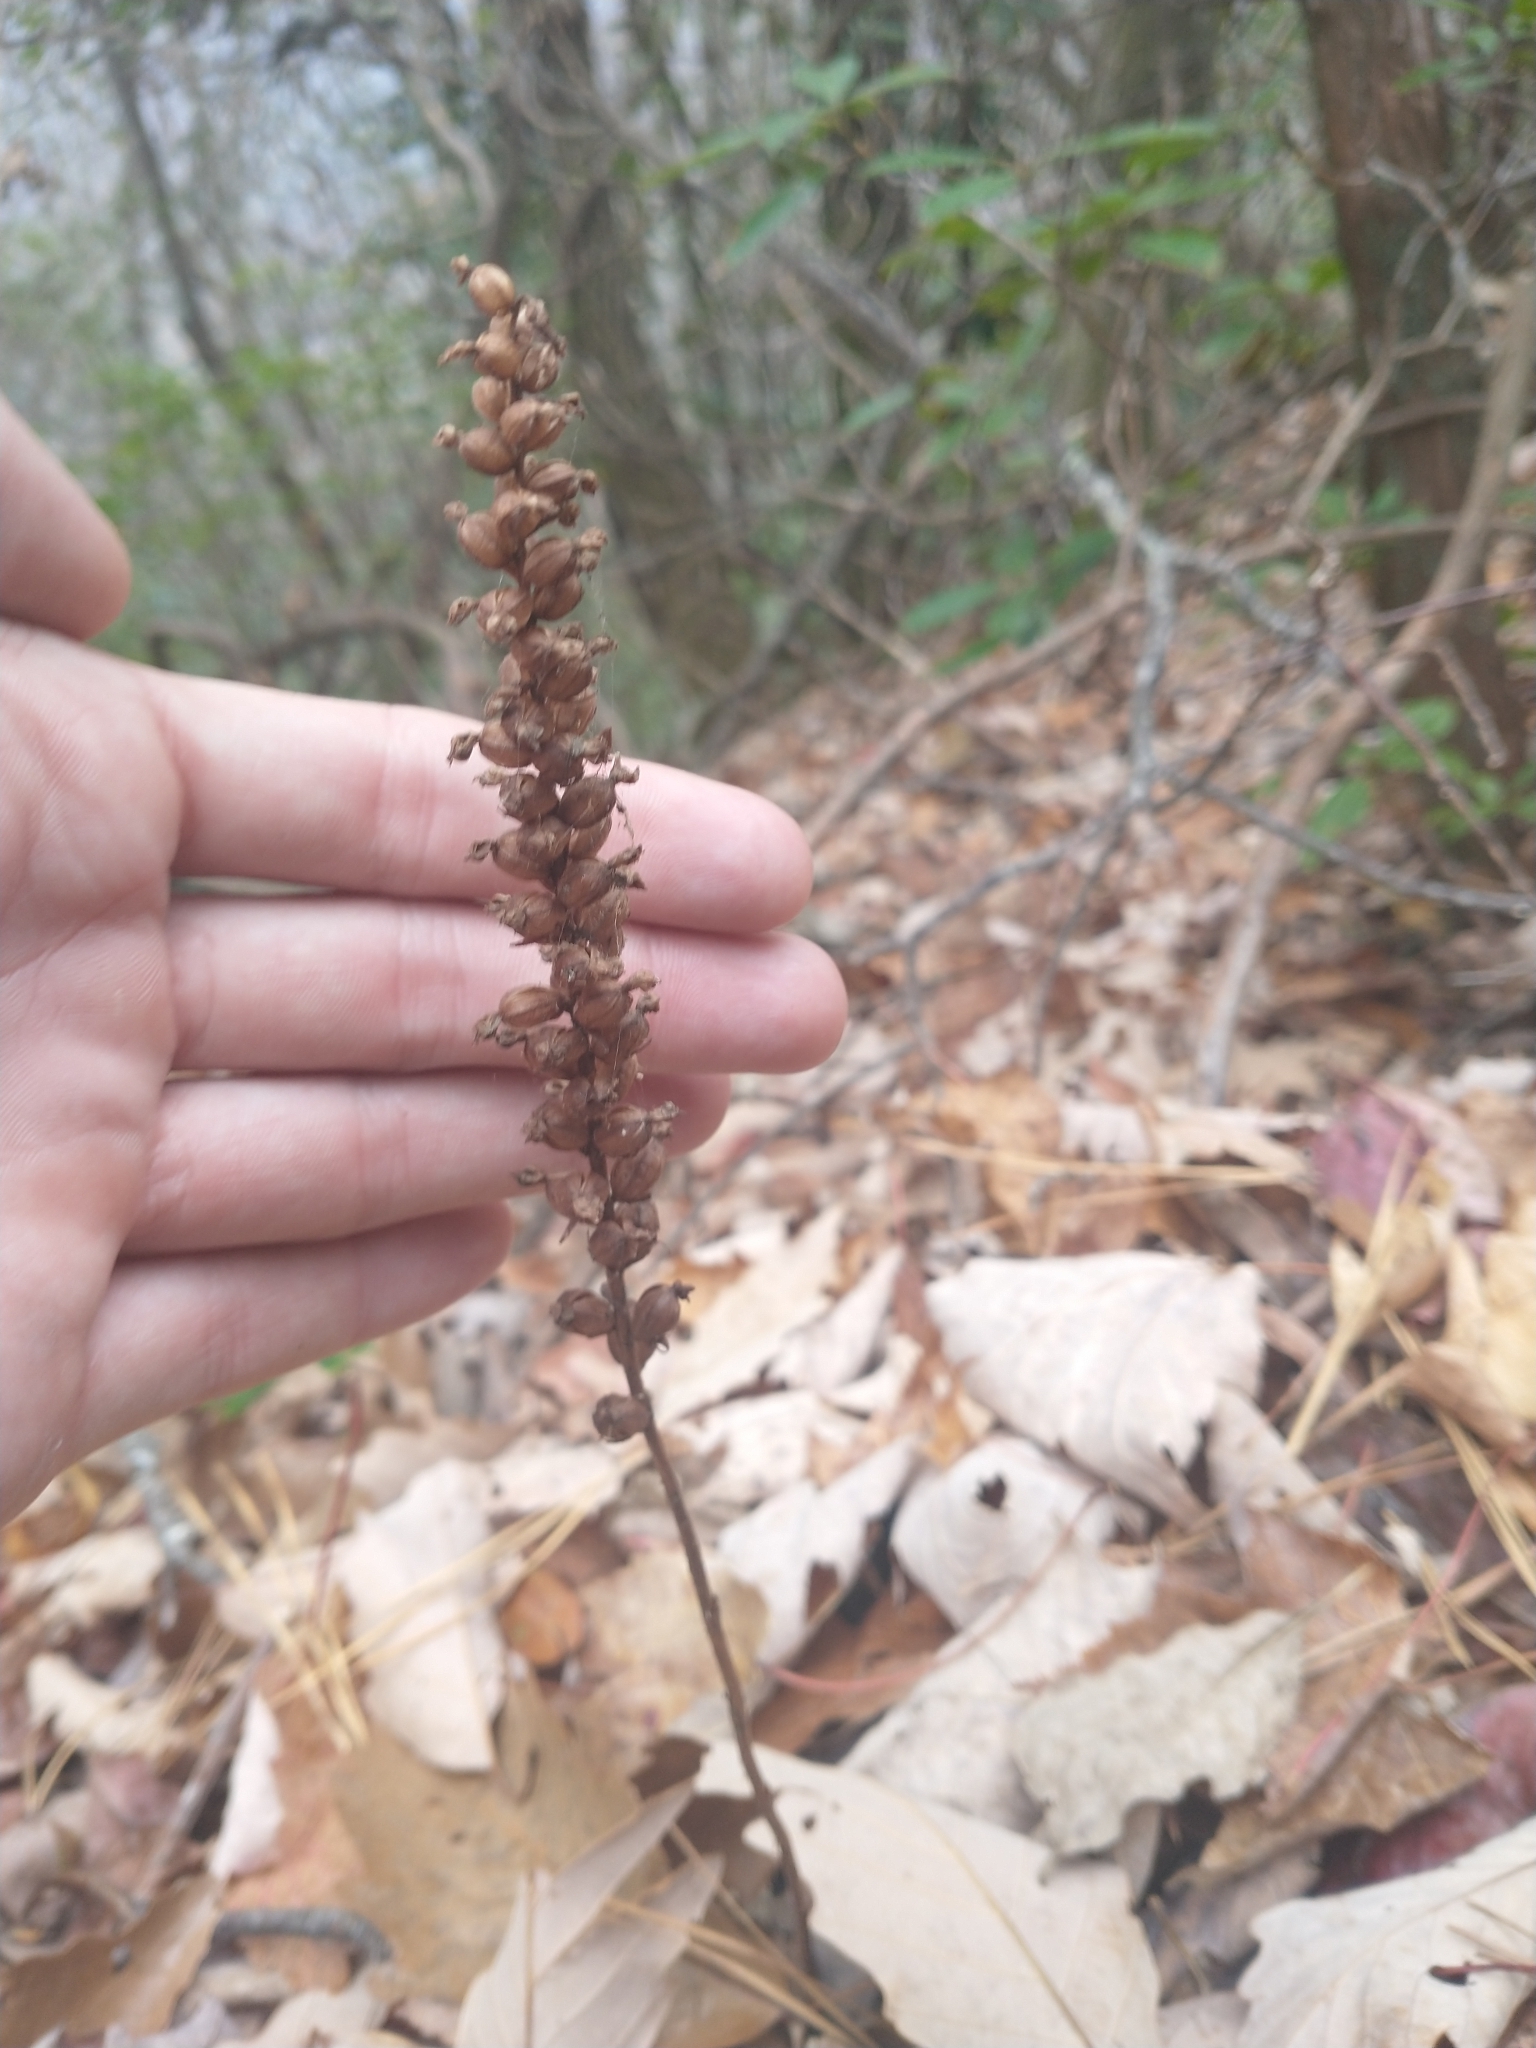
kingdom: Plantae
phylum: Tracheophyta
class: Liliopsida
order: Asparagales
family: Orchidaceae
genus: Goodyera
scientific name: Goodyera pubescens
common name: Downy rattlesnake-plantain
